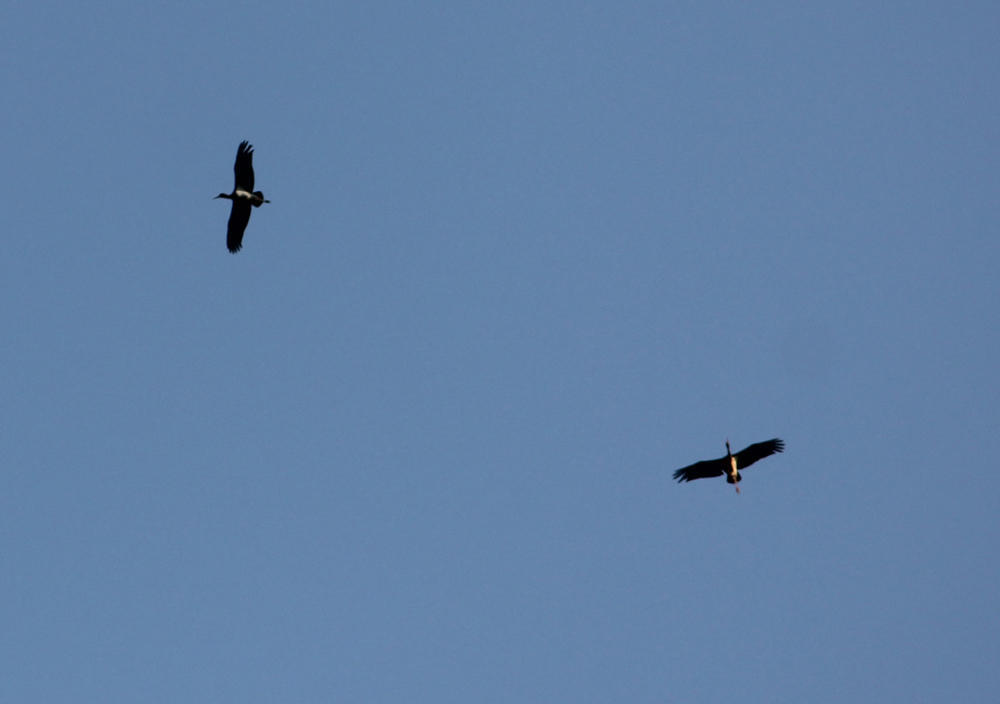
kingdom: Animalia
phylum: Chordata
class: Aves
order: Ciconiiformes
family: Ciconiidae
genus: Ciconia
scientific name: Ciconia nigra
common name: Black stork
